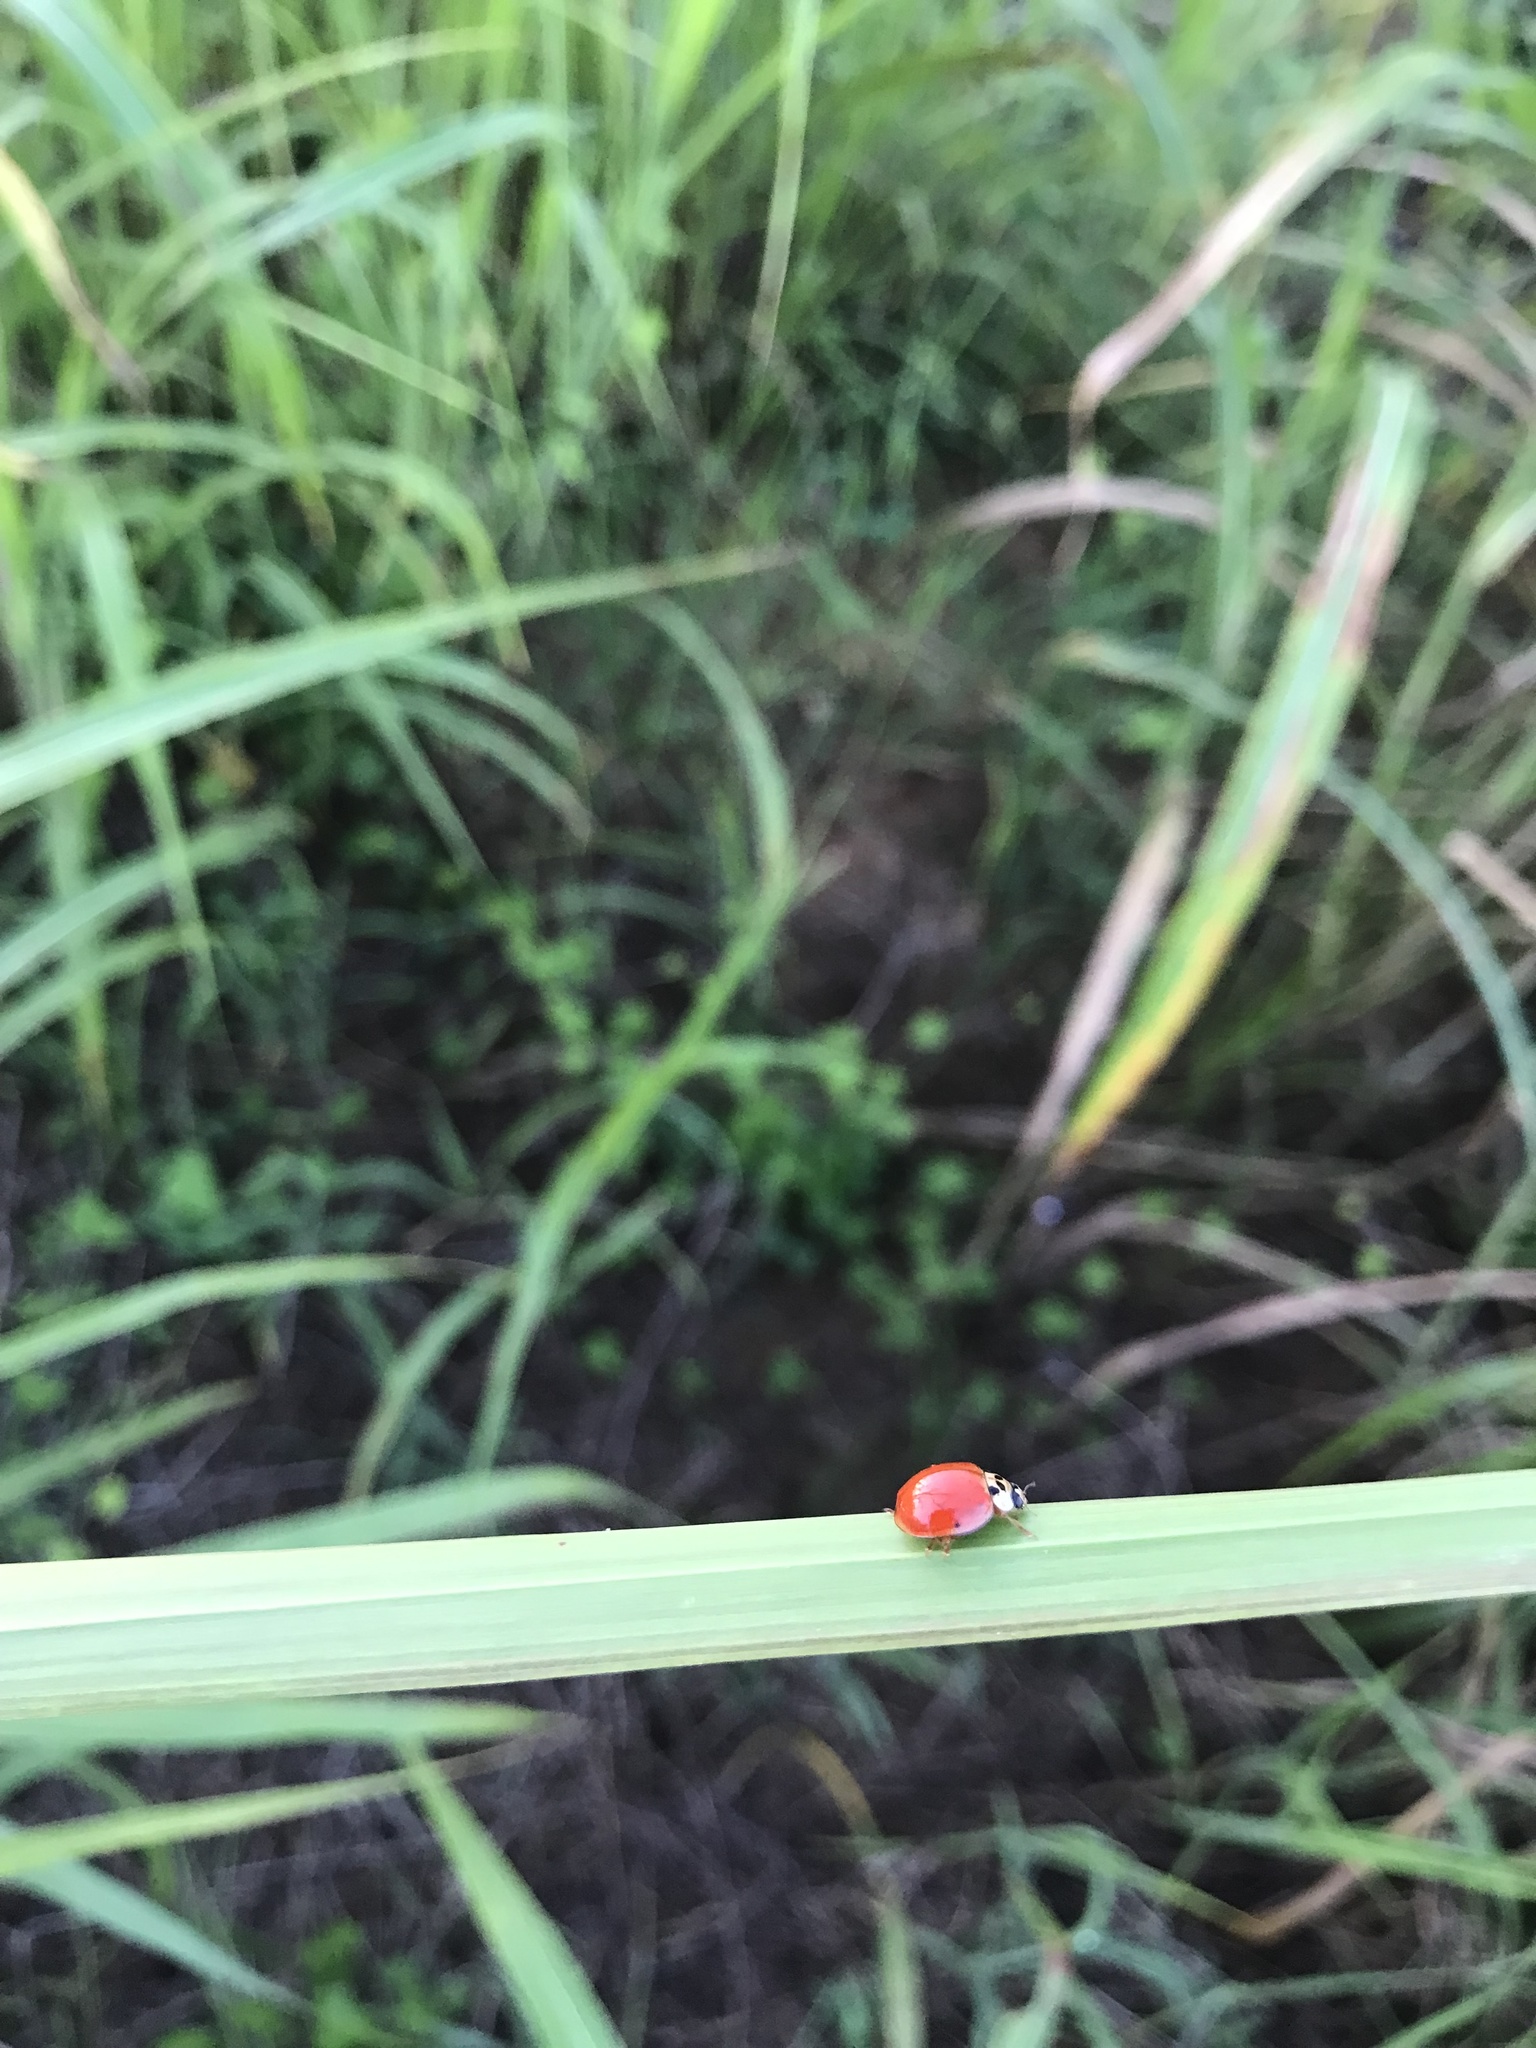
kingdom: Animalia
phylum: Arthropoda
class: Insecta
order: Coleoptera
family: Coccinellidae
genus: Harmonia
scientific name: Harmonia axyridis
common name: Harlequin ladybird
